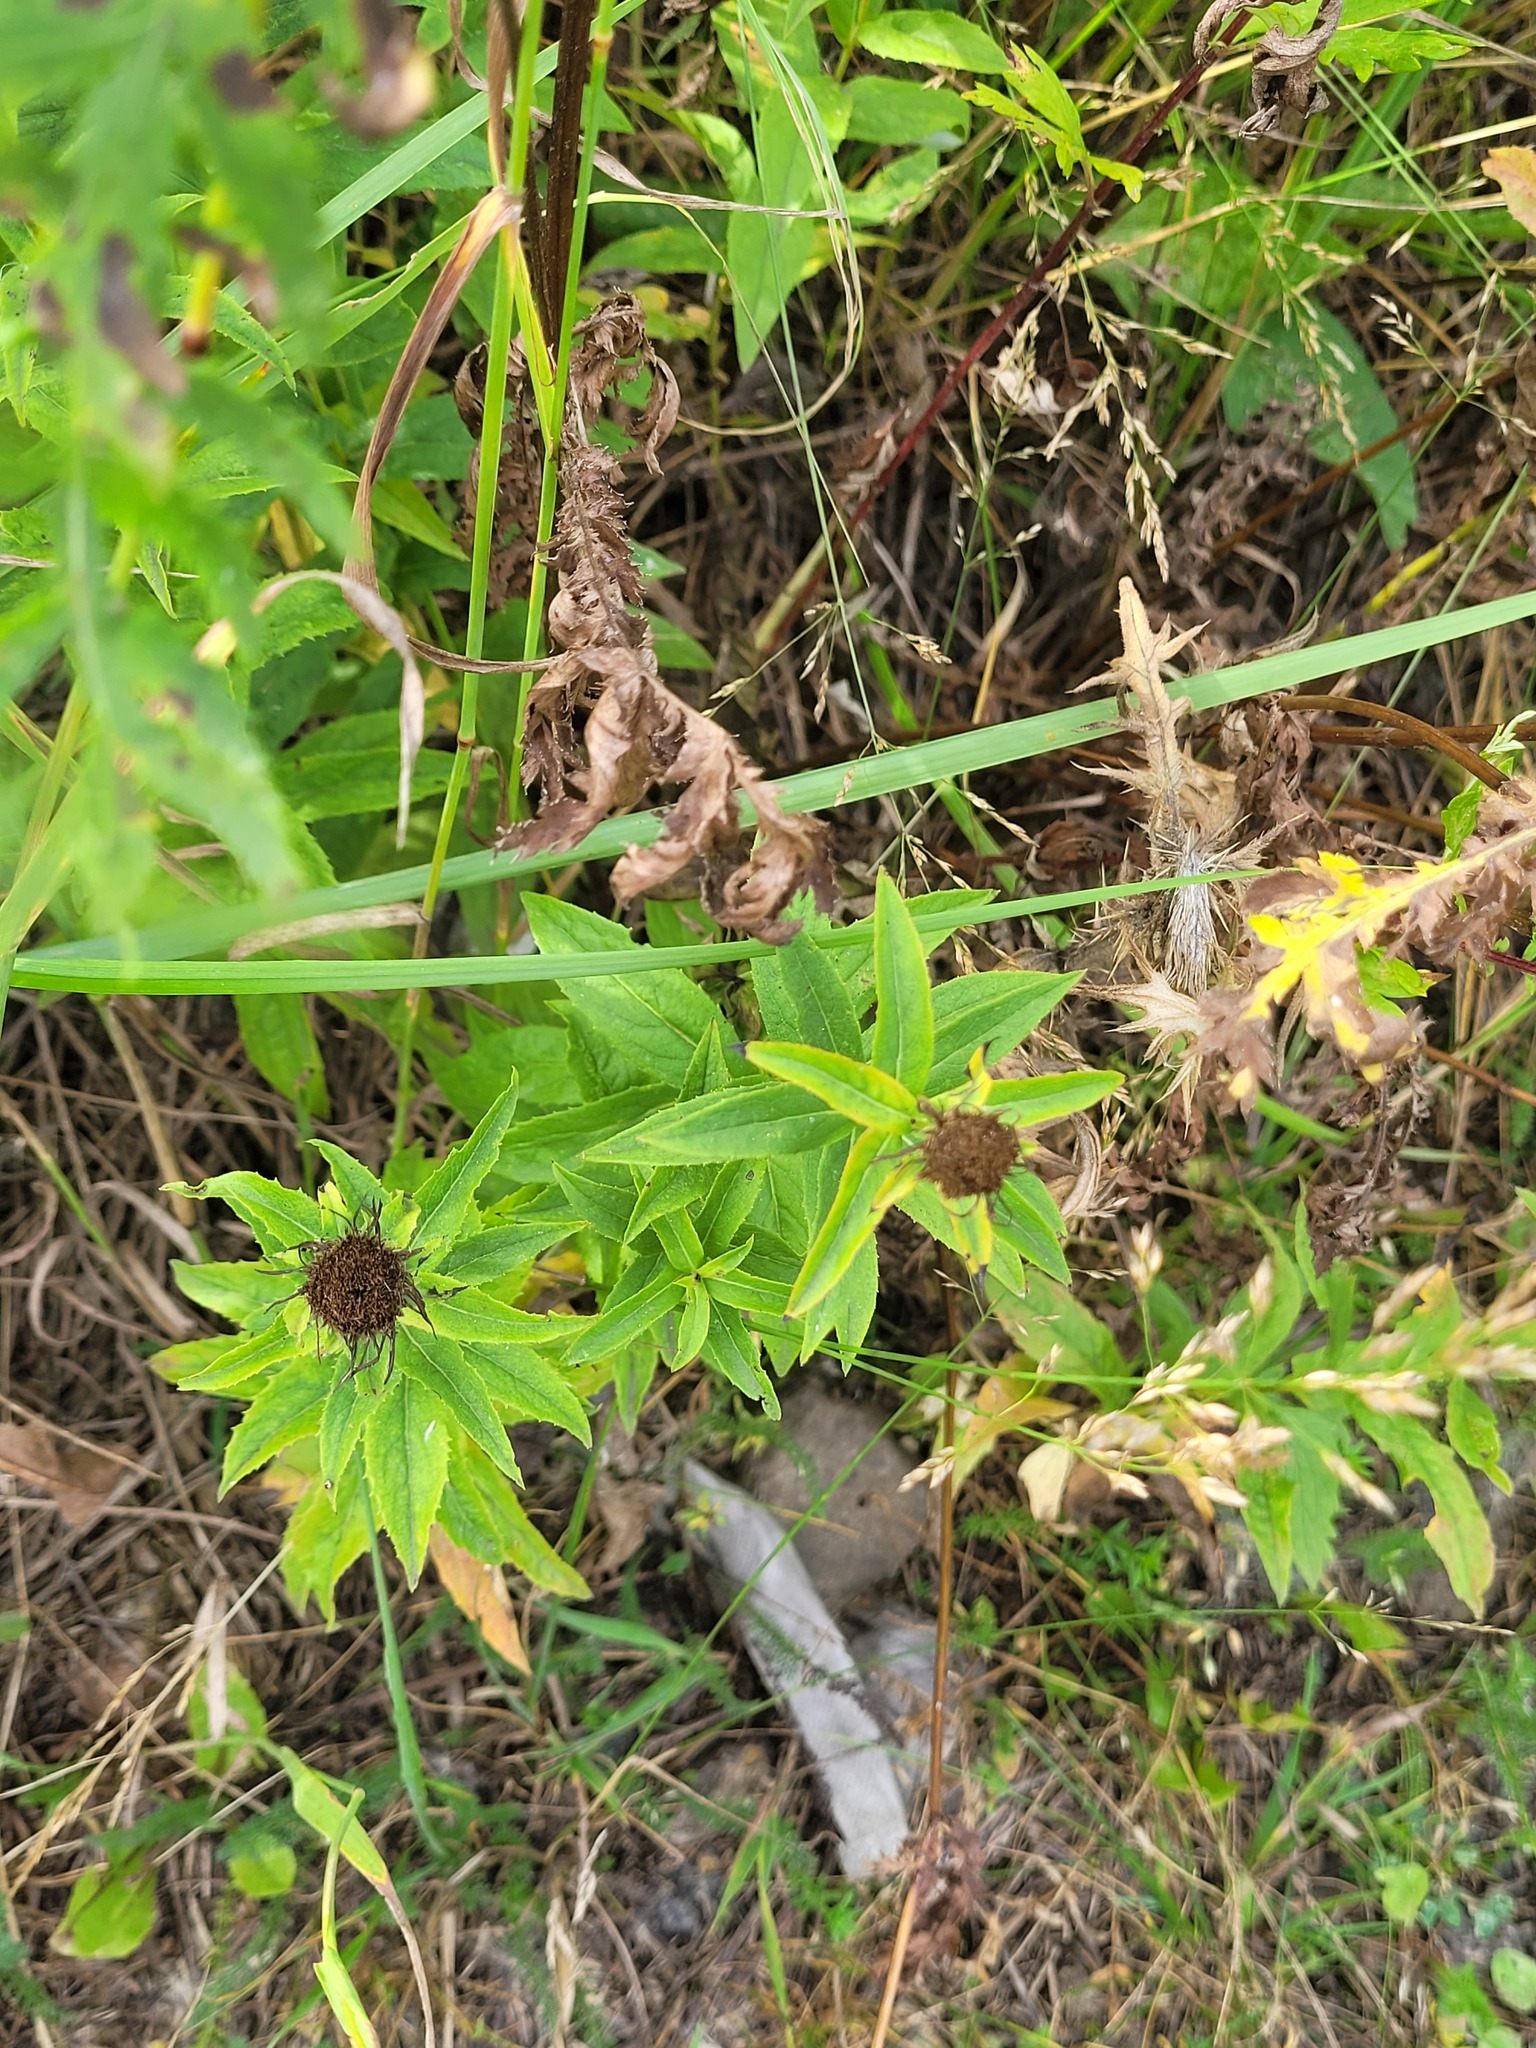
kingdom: Plantae
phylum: Tracheophyta
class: Magnoliopsida
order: Asterales
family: Asteraceae
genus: Pentanema
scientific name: Pentanema salicinum
